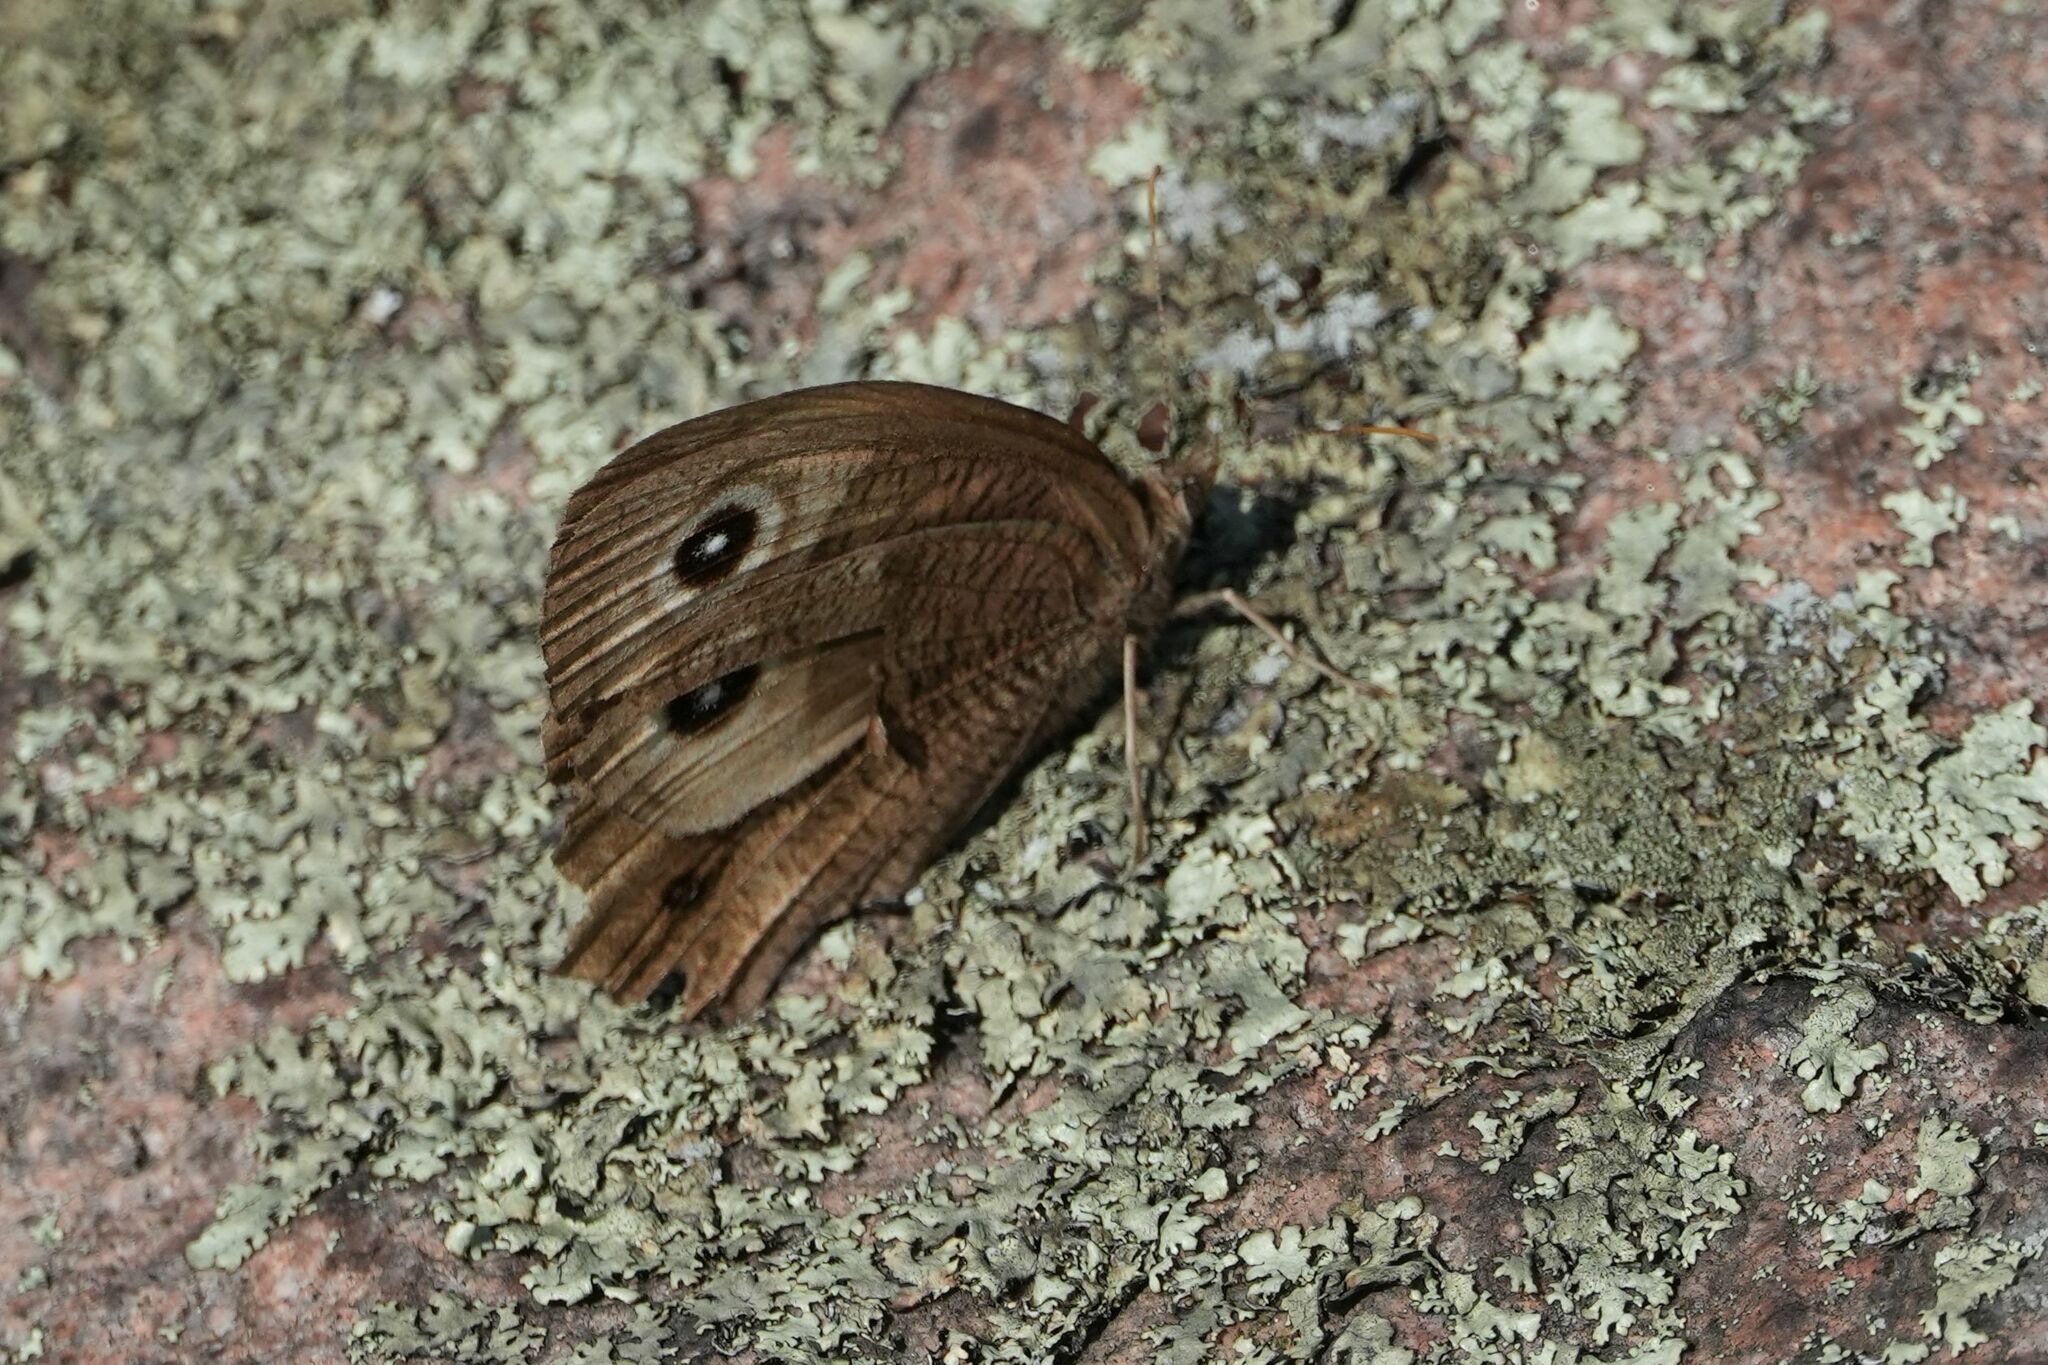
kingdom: Animalia
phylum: Arthropoda
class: Insecta
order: Lepidoptera
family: Nymphalidae
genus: Cercyonis
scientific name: Cercyonis pegala
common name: Common wood-nymph
